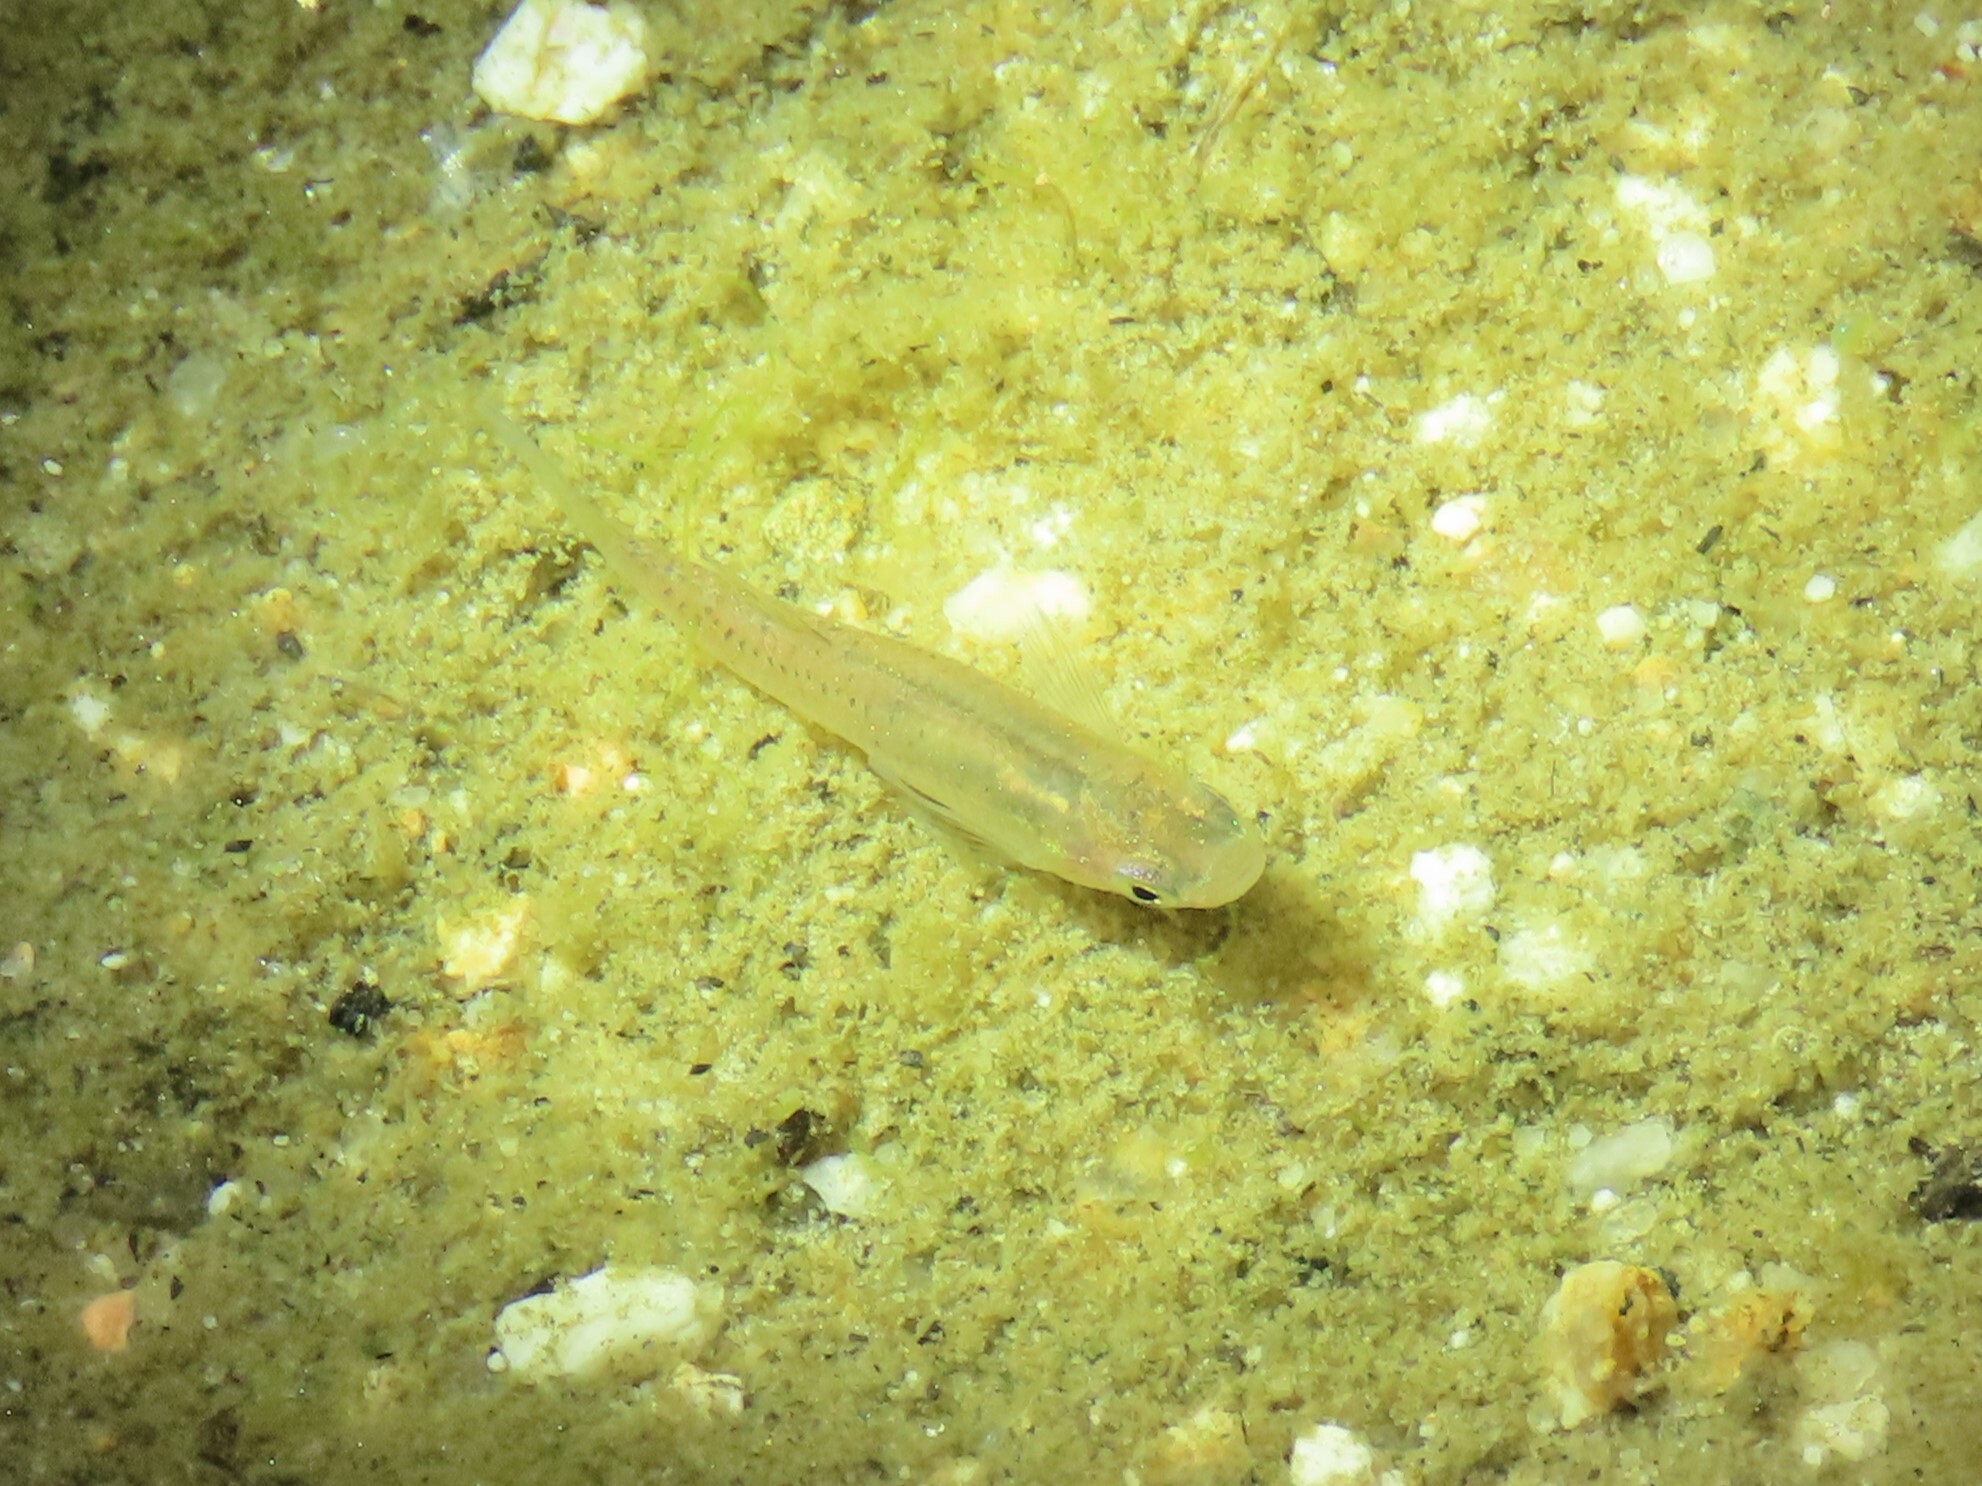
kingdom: Animalia
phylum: Chordata
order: Cyprinodontiformes
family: Poeciliidae
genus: Gambusia
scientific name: Gambusia holbrooki
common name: Eastern mosquitofish
